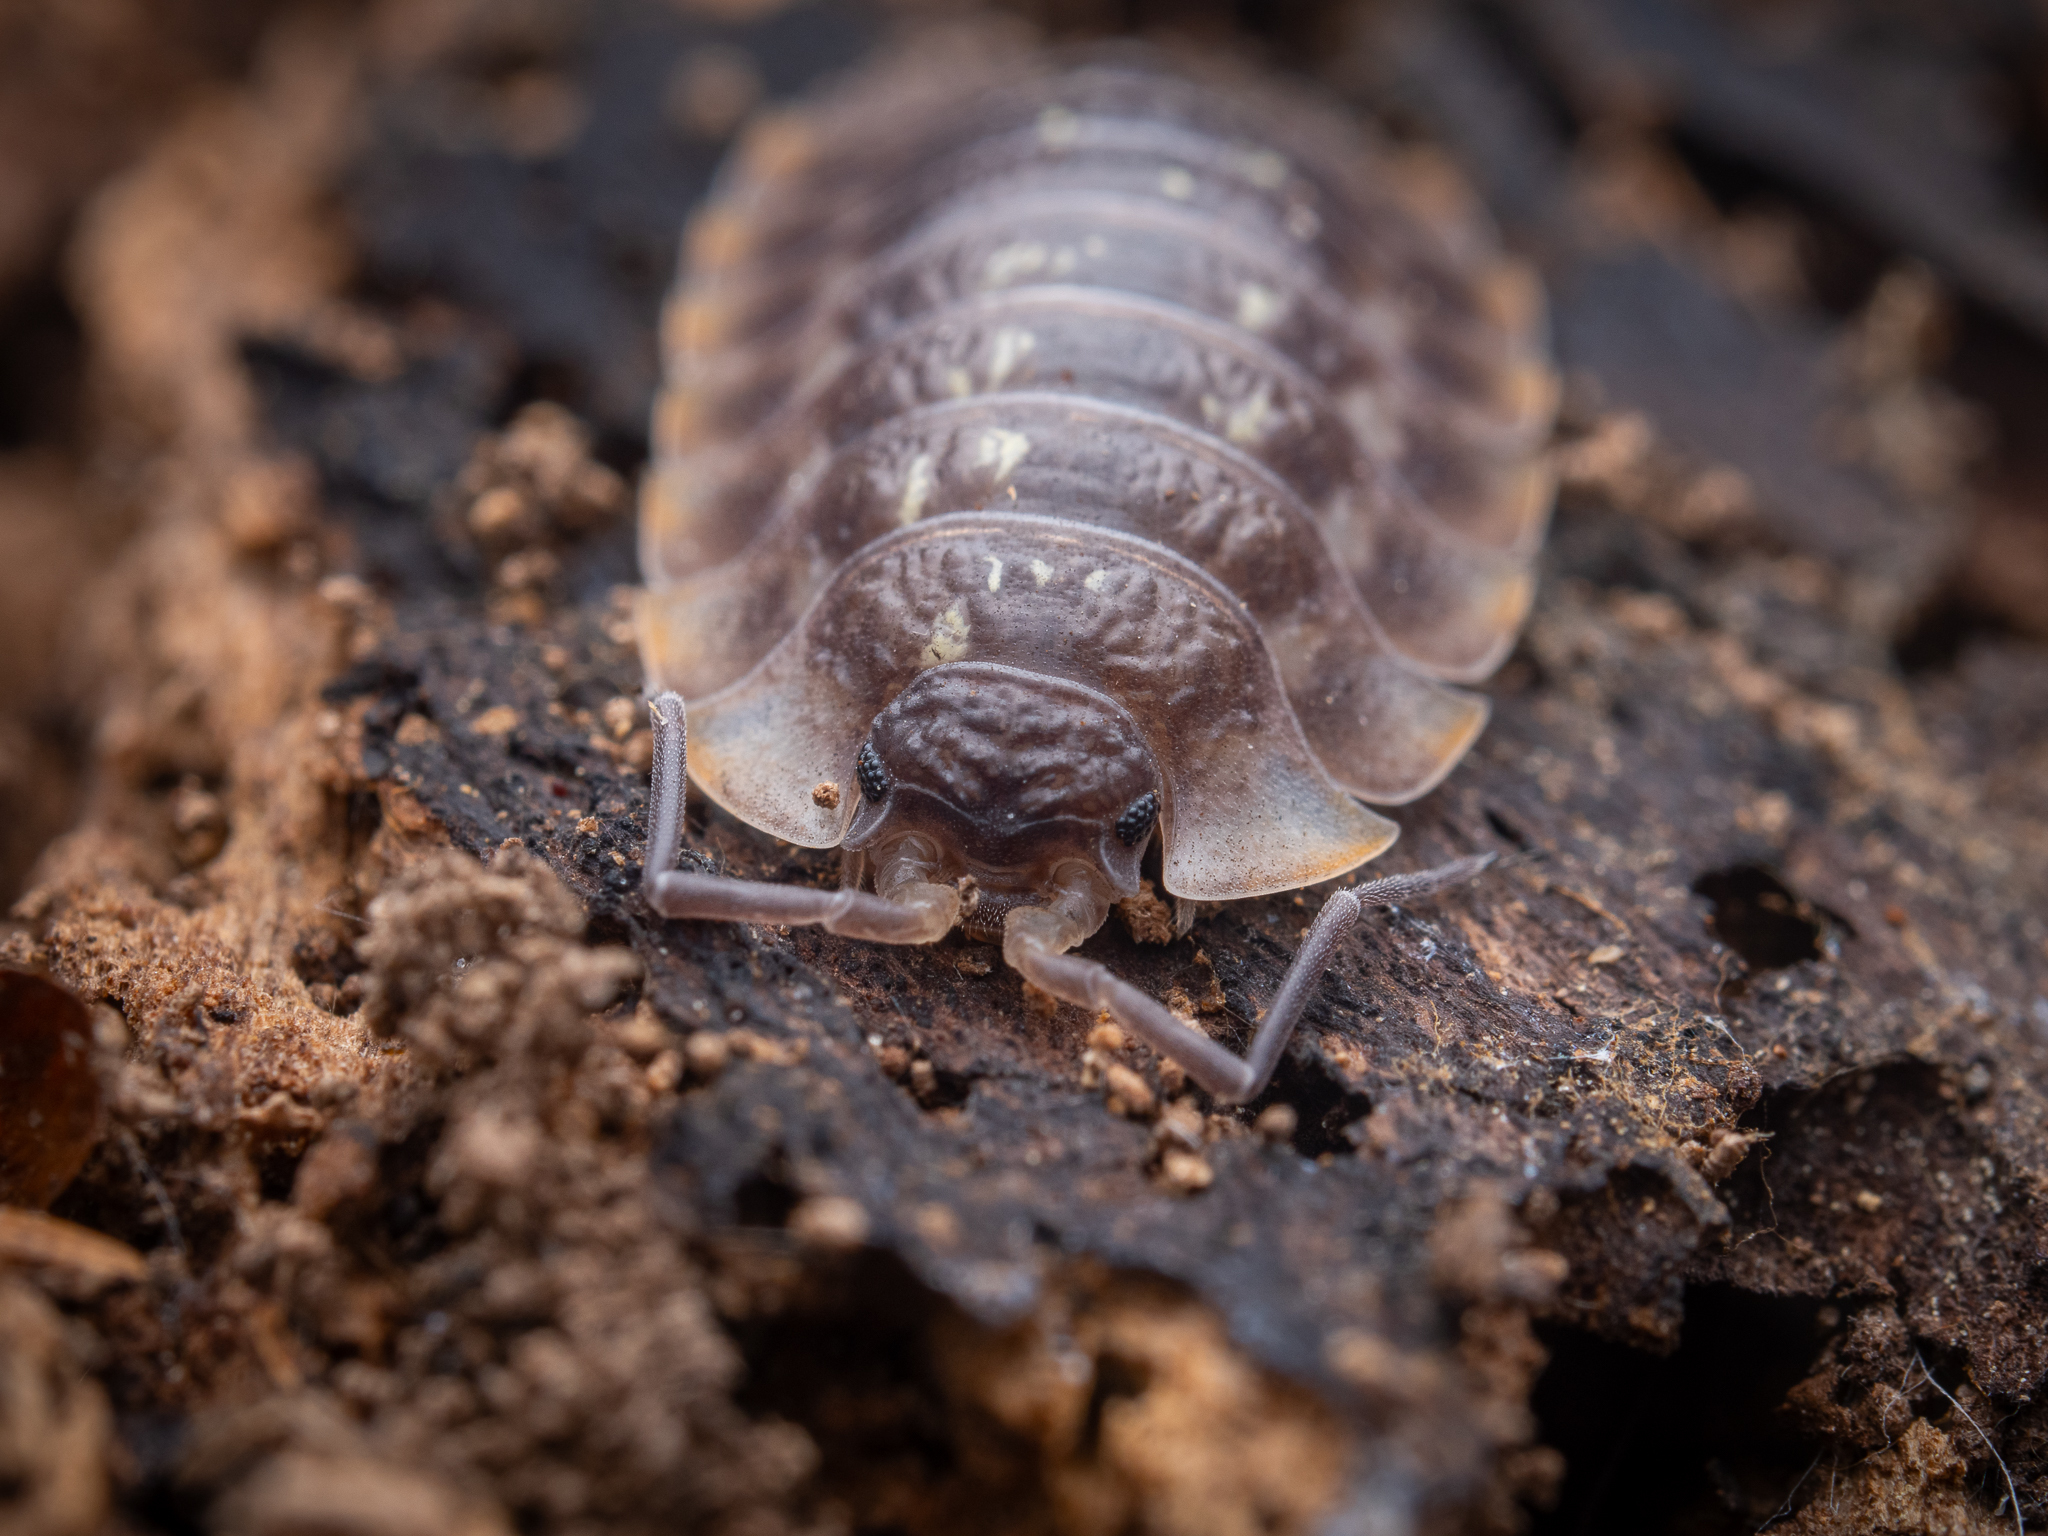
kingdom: Animalia
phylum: Arthropoda
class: Malacostraca
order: Isopoda
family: Oniscidae
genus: Oniscus
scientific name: Oniscus asellus
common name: Common shiny woodlouse
